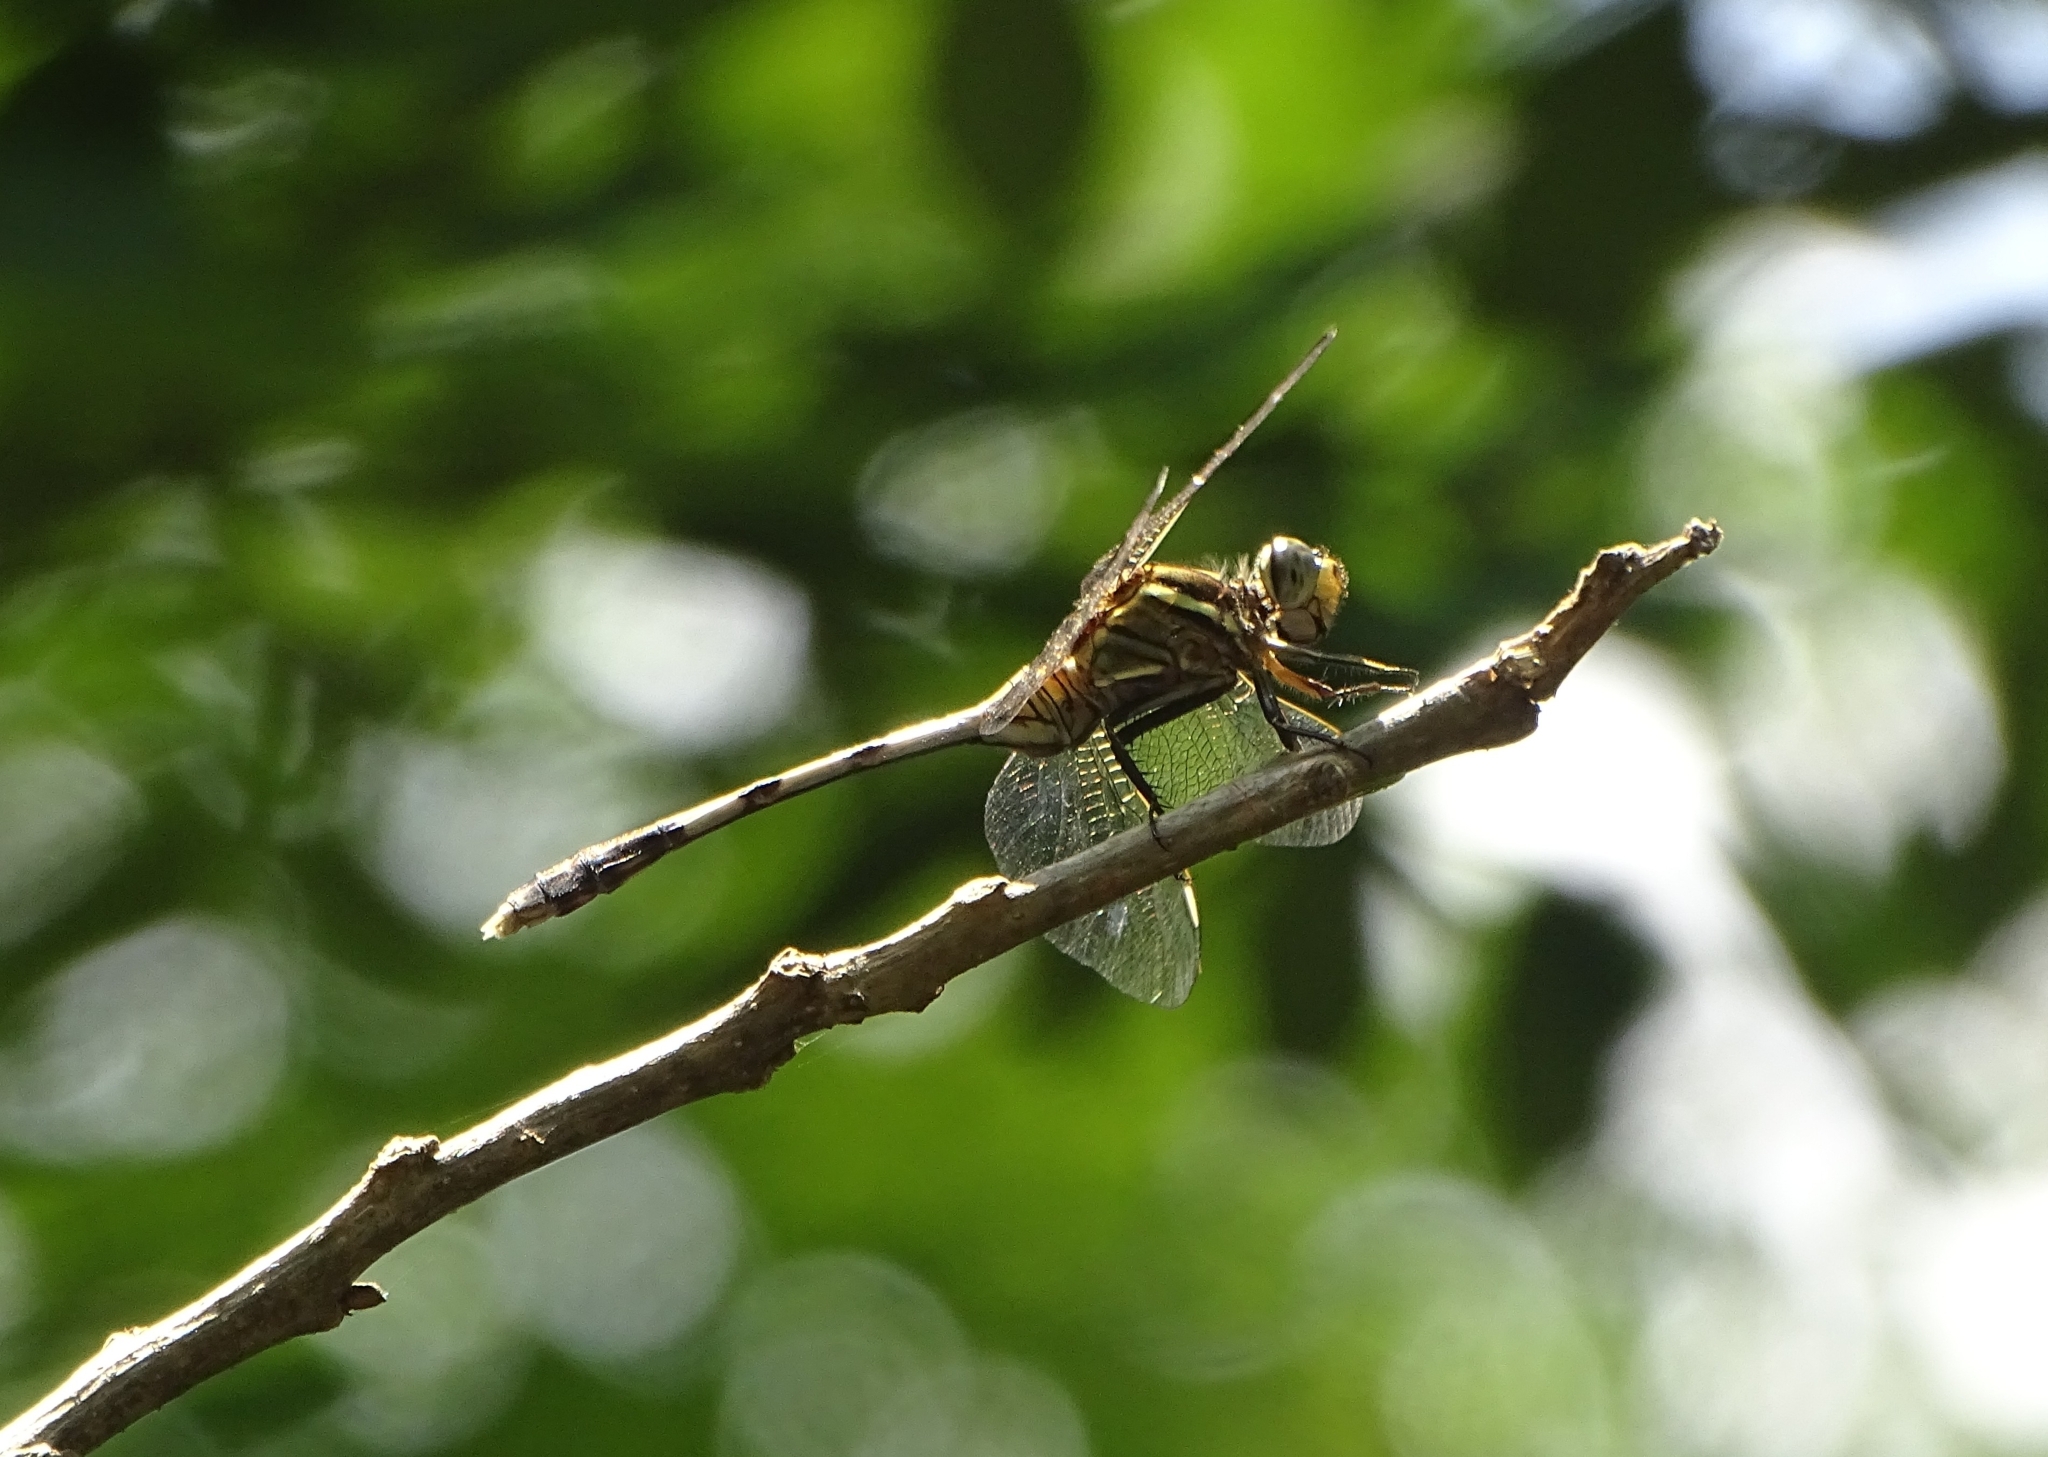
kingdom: Animalia
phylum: Arthropoda
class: Insecta
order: Odonata
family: Libellulidae
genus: Orthetrum
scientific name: Orthetrum sabina
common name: Slender skimmer
